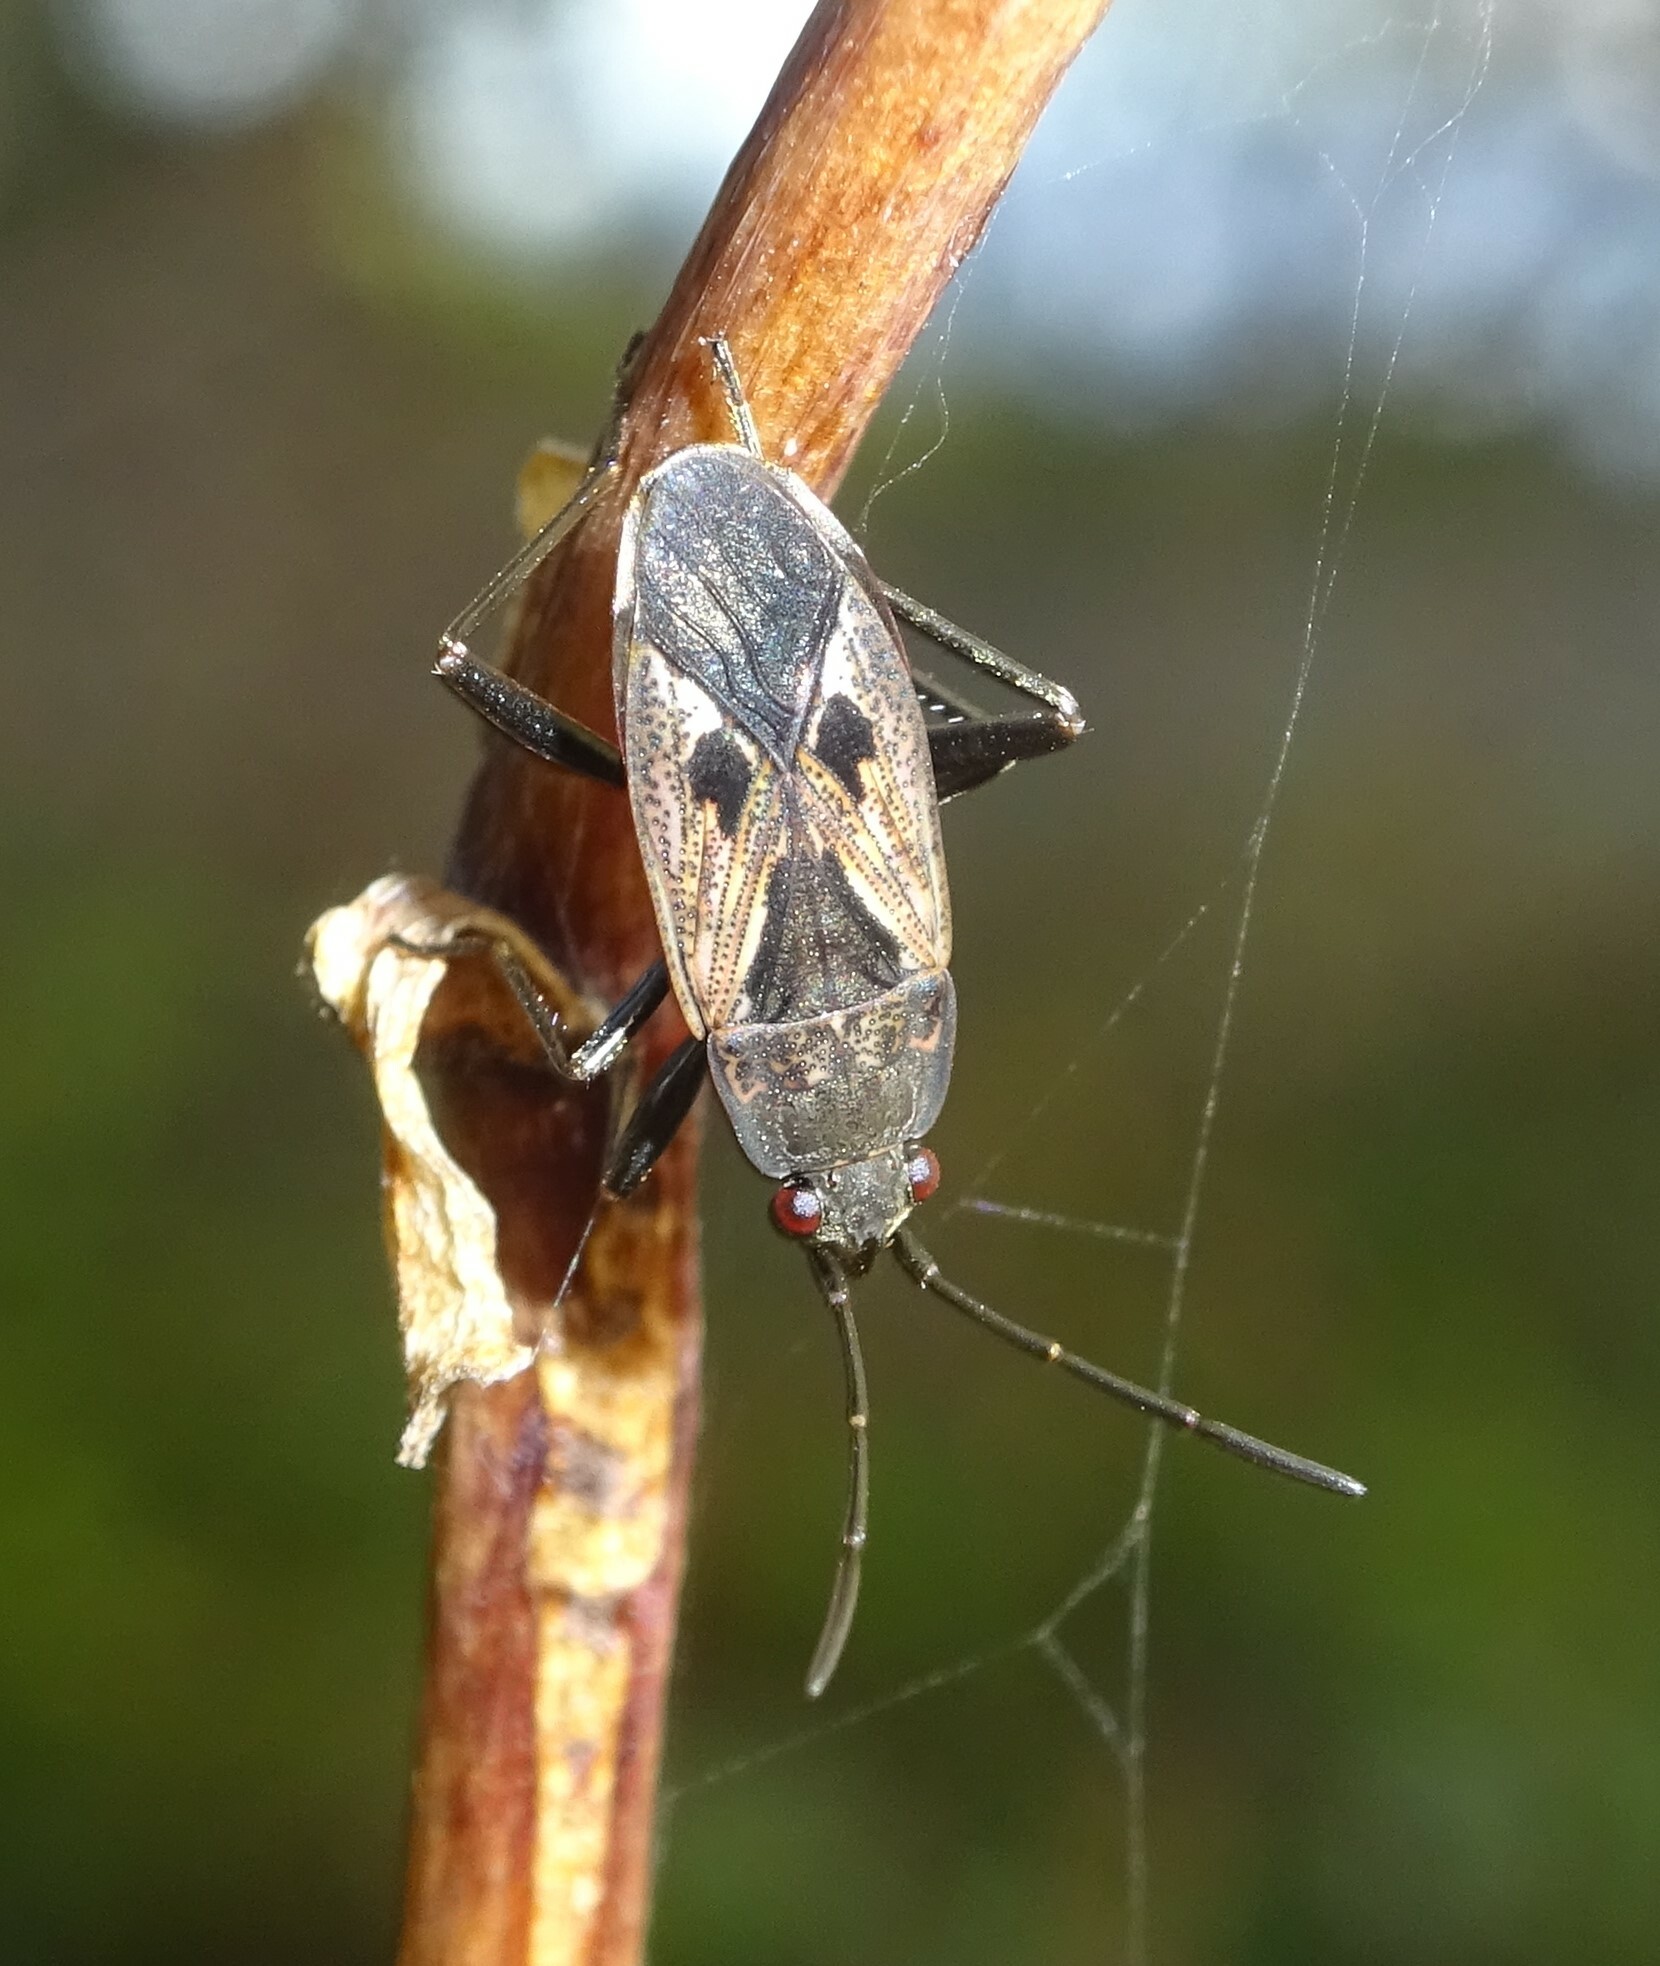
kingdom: Animalia
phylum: Arthropoda
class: Insecta
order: Hemiptera
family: Rhyparochromidae
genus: Rhyparochromus
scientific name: Rhyparochromus pini
